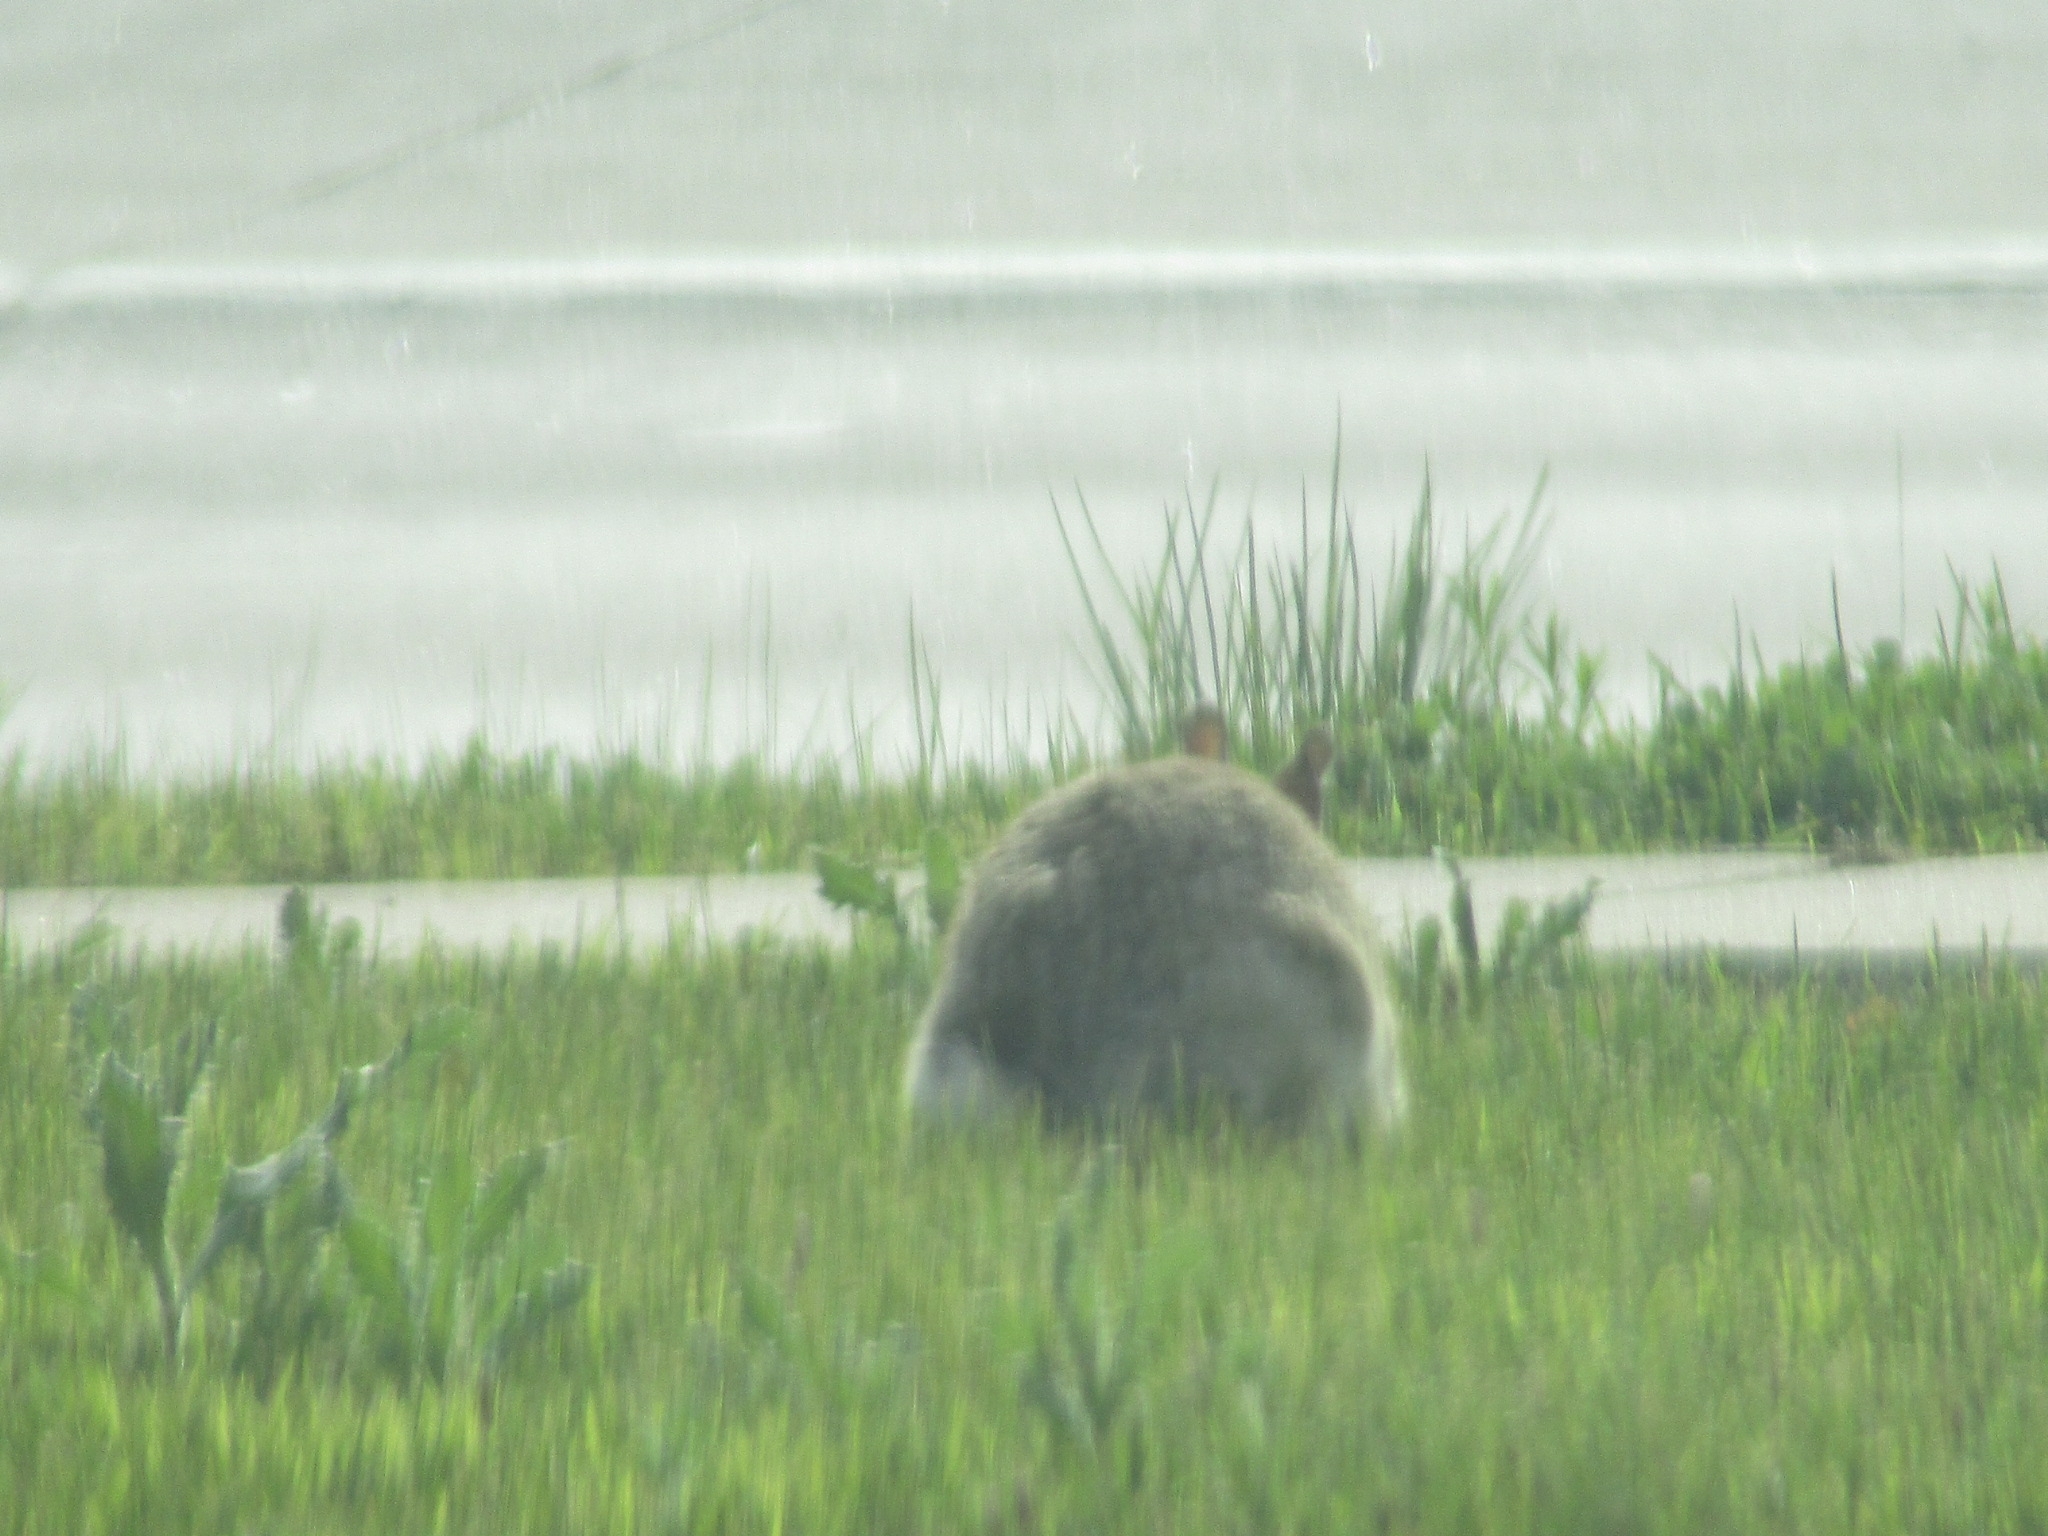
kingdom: Animalia
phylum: Chordata
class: Mammalia
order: Lagomorpha
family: Leporidae
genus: Lepus
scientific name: Lepus townsendii
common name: White-tailed jackrabbit
